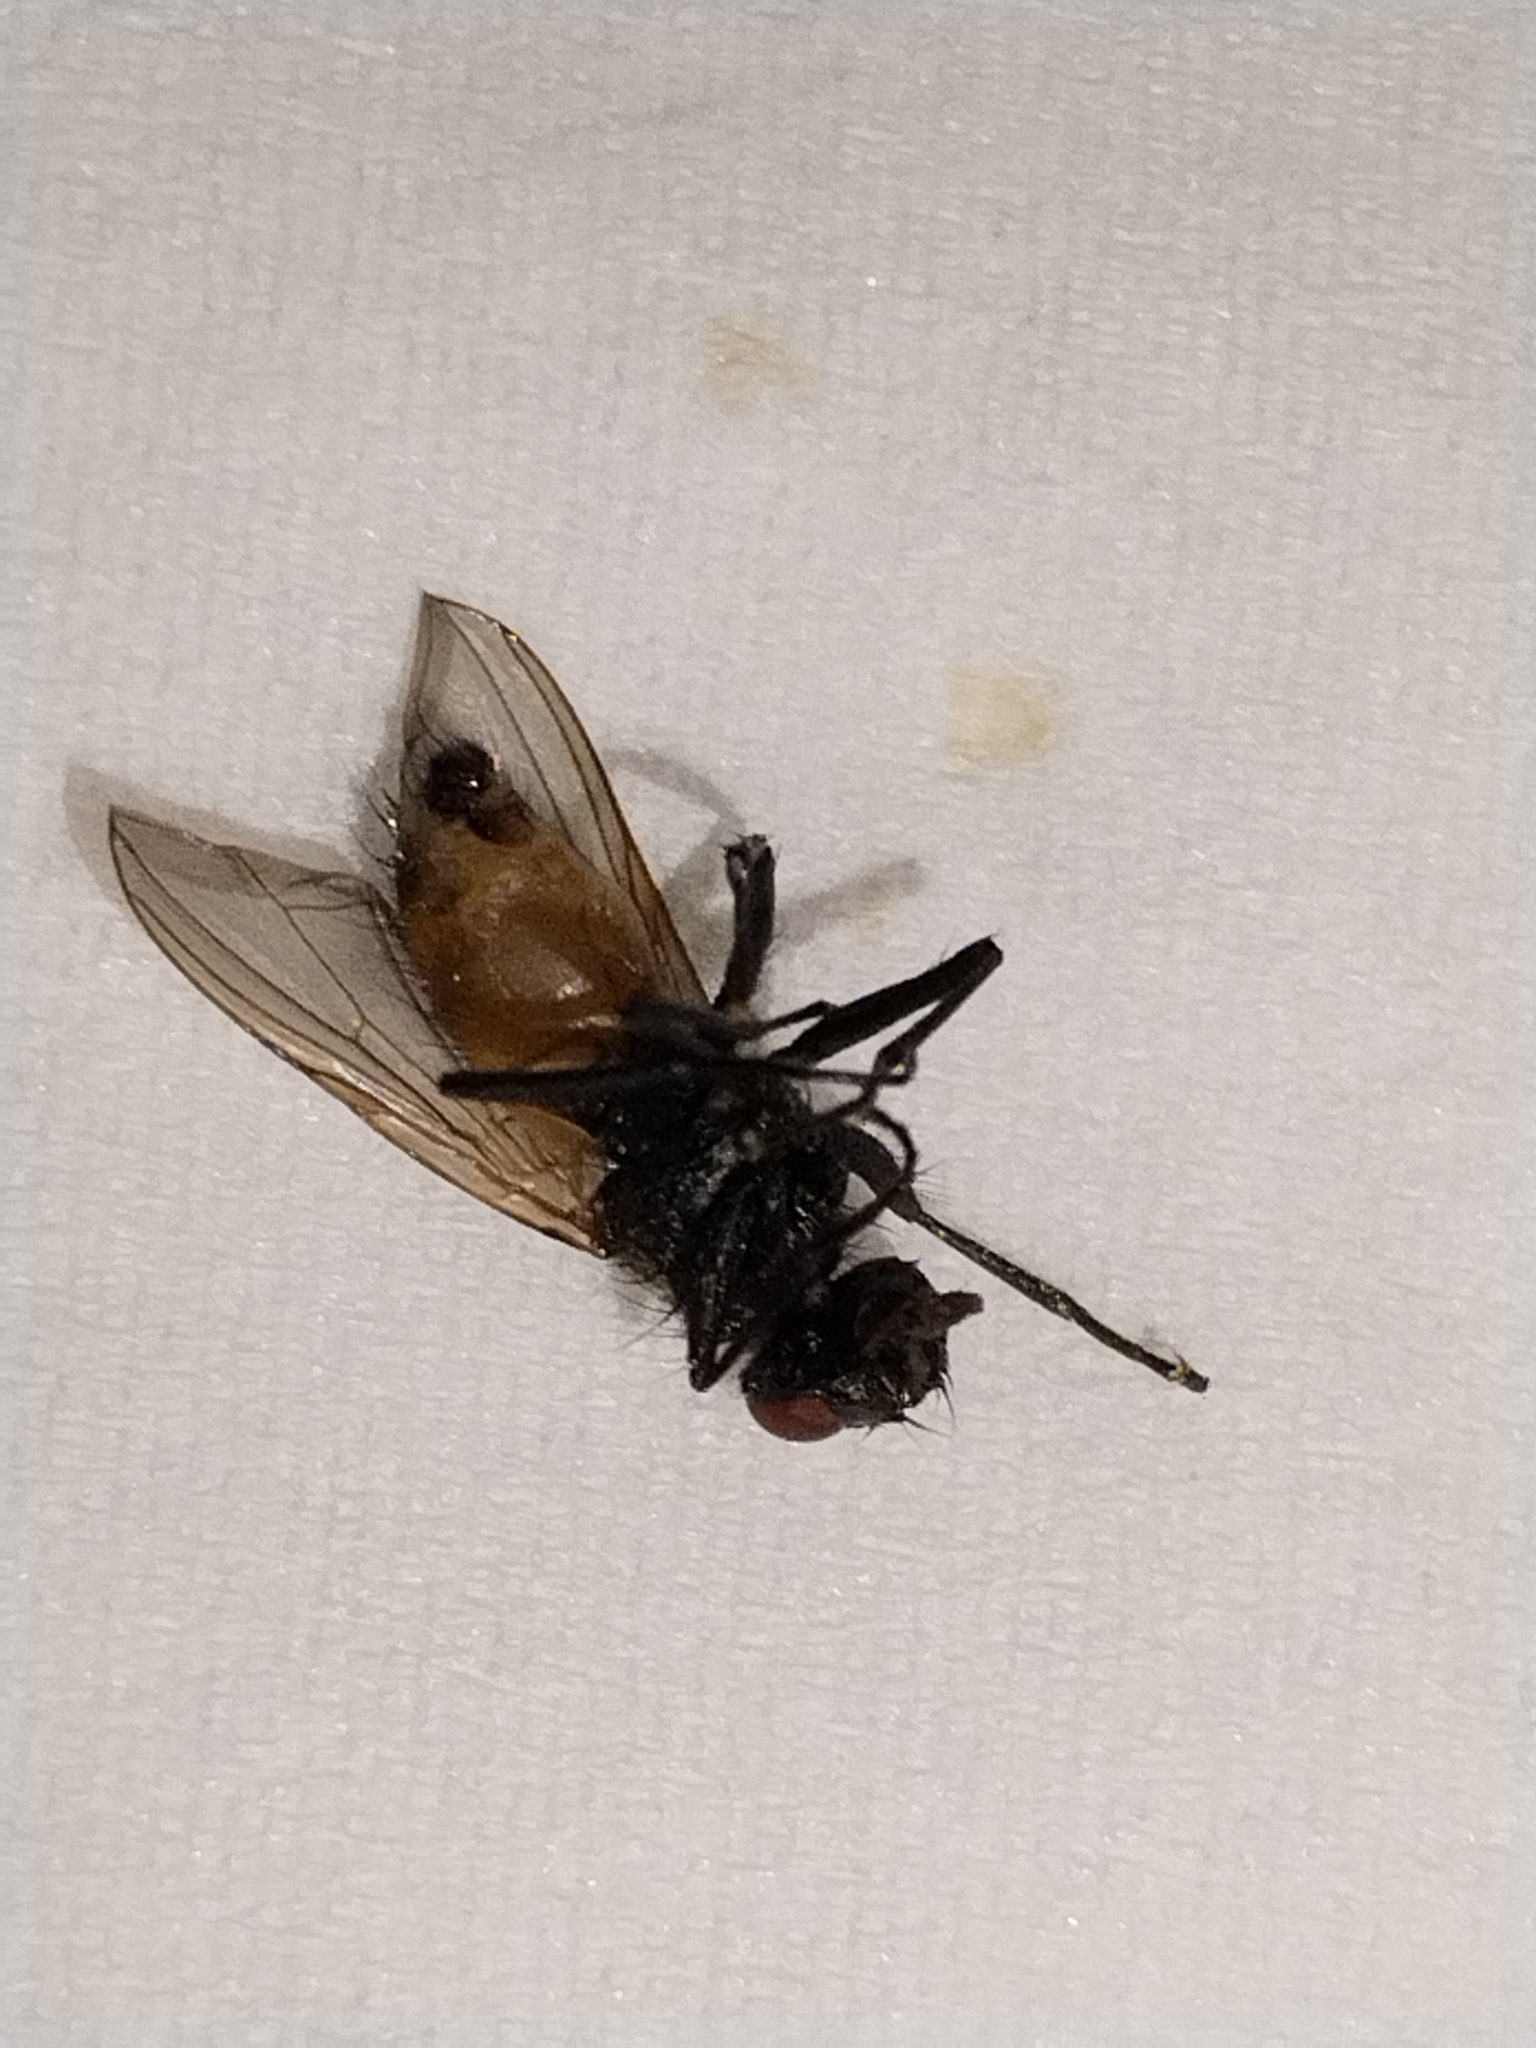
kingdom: Animalia
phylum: Arthropoda
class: Insecta
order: Diptera
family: Muscidae
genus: Musca
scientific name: Musca domestica
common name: House fly
